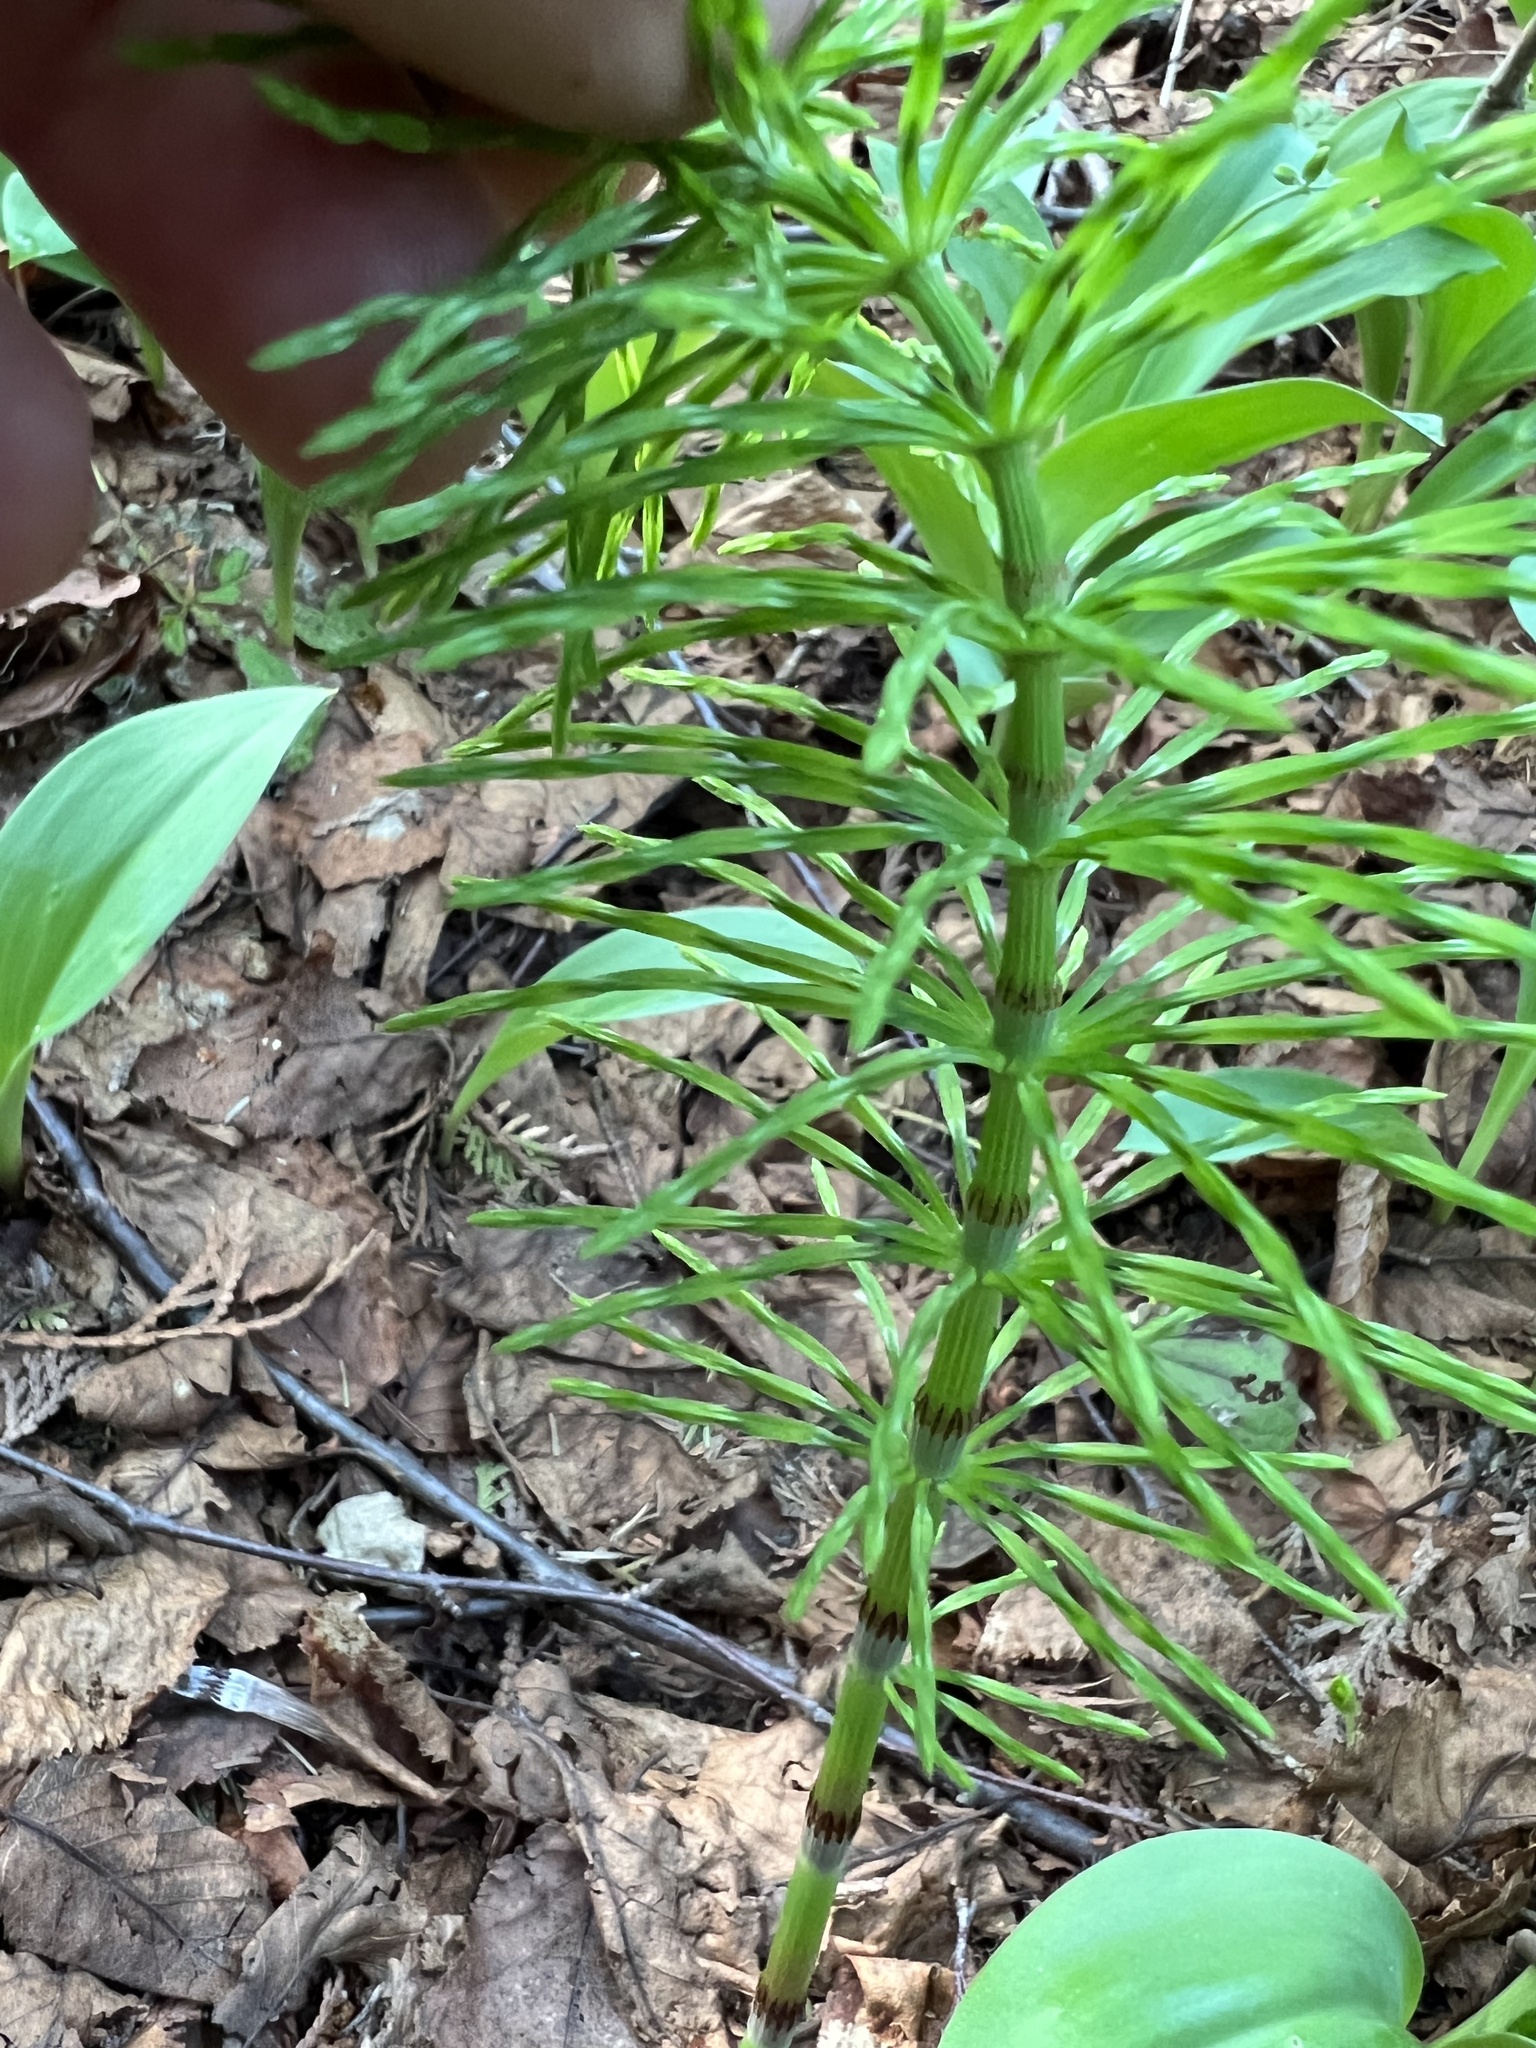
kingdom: Plantae
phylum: Tracheophyta
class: Polypodiopsida
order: Equisetales
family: Equisetaceae
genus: Equisetum
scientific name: Equisetum arvense
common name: Field horsetail
